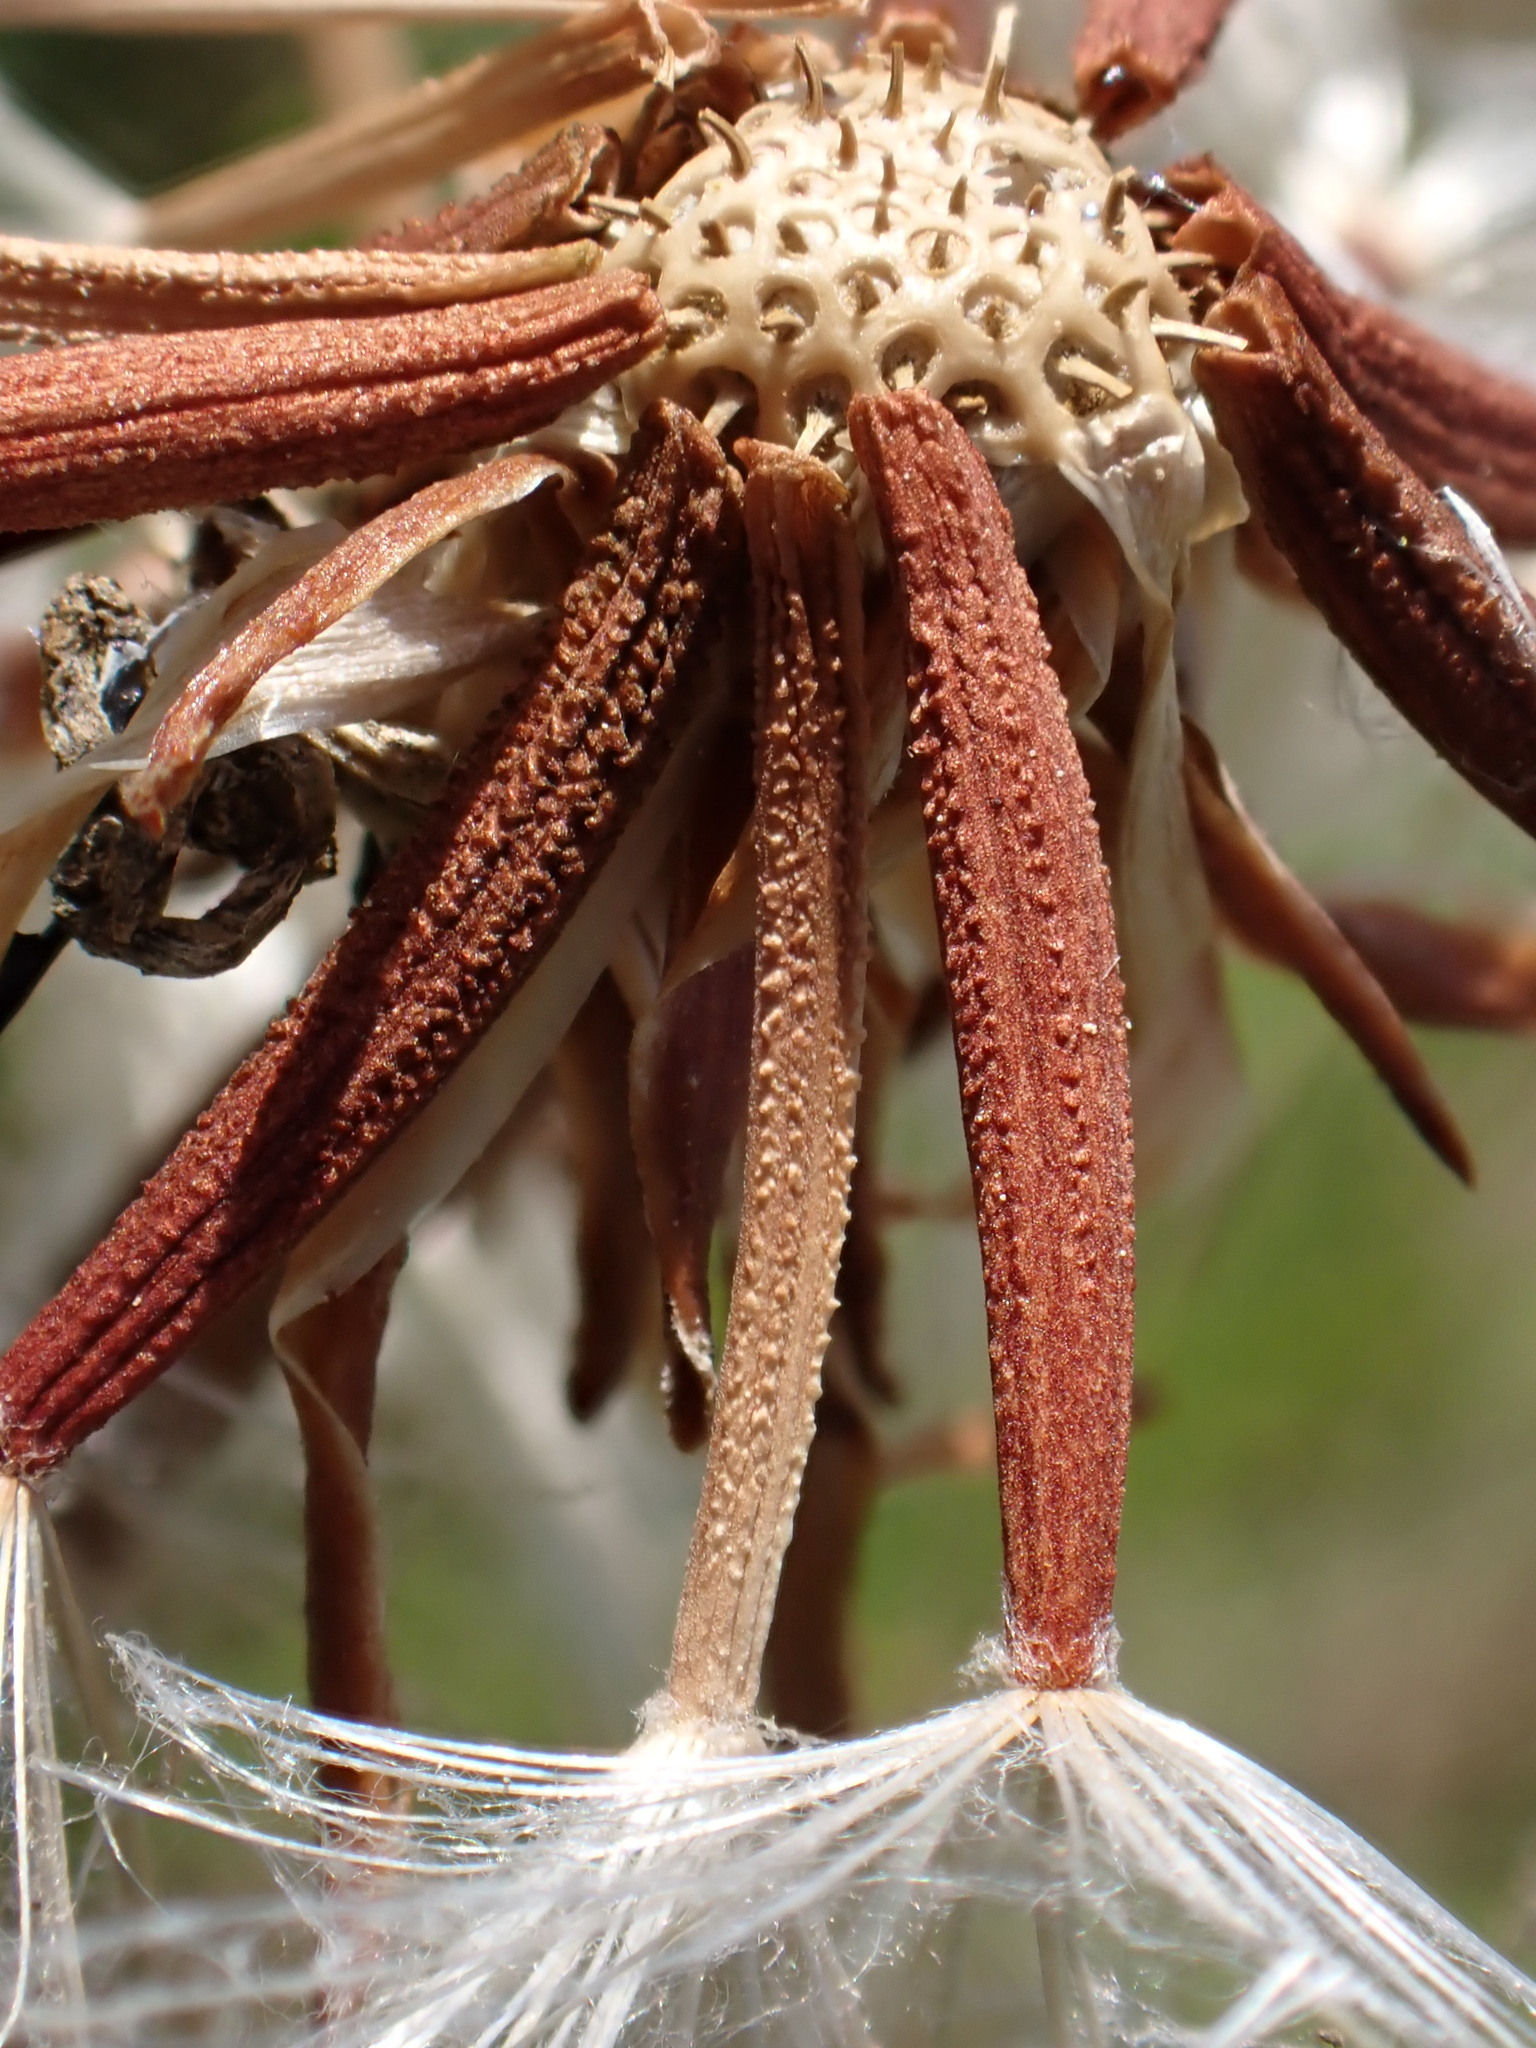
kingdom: Plantae
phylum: Tracheophyta
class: Magnoliopsida
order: Asterales
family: Asteraceae
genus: Takhtajaniantha
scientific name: Takhtajaniantha austriaca
